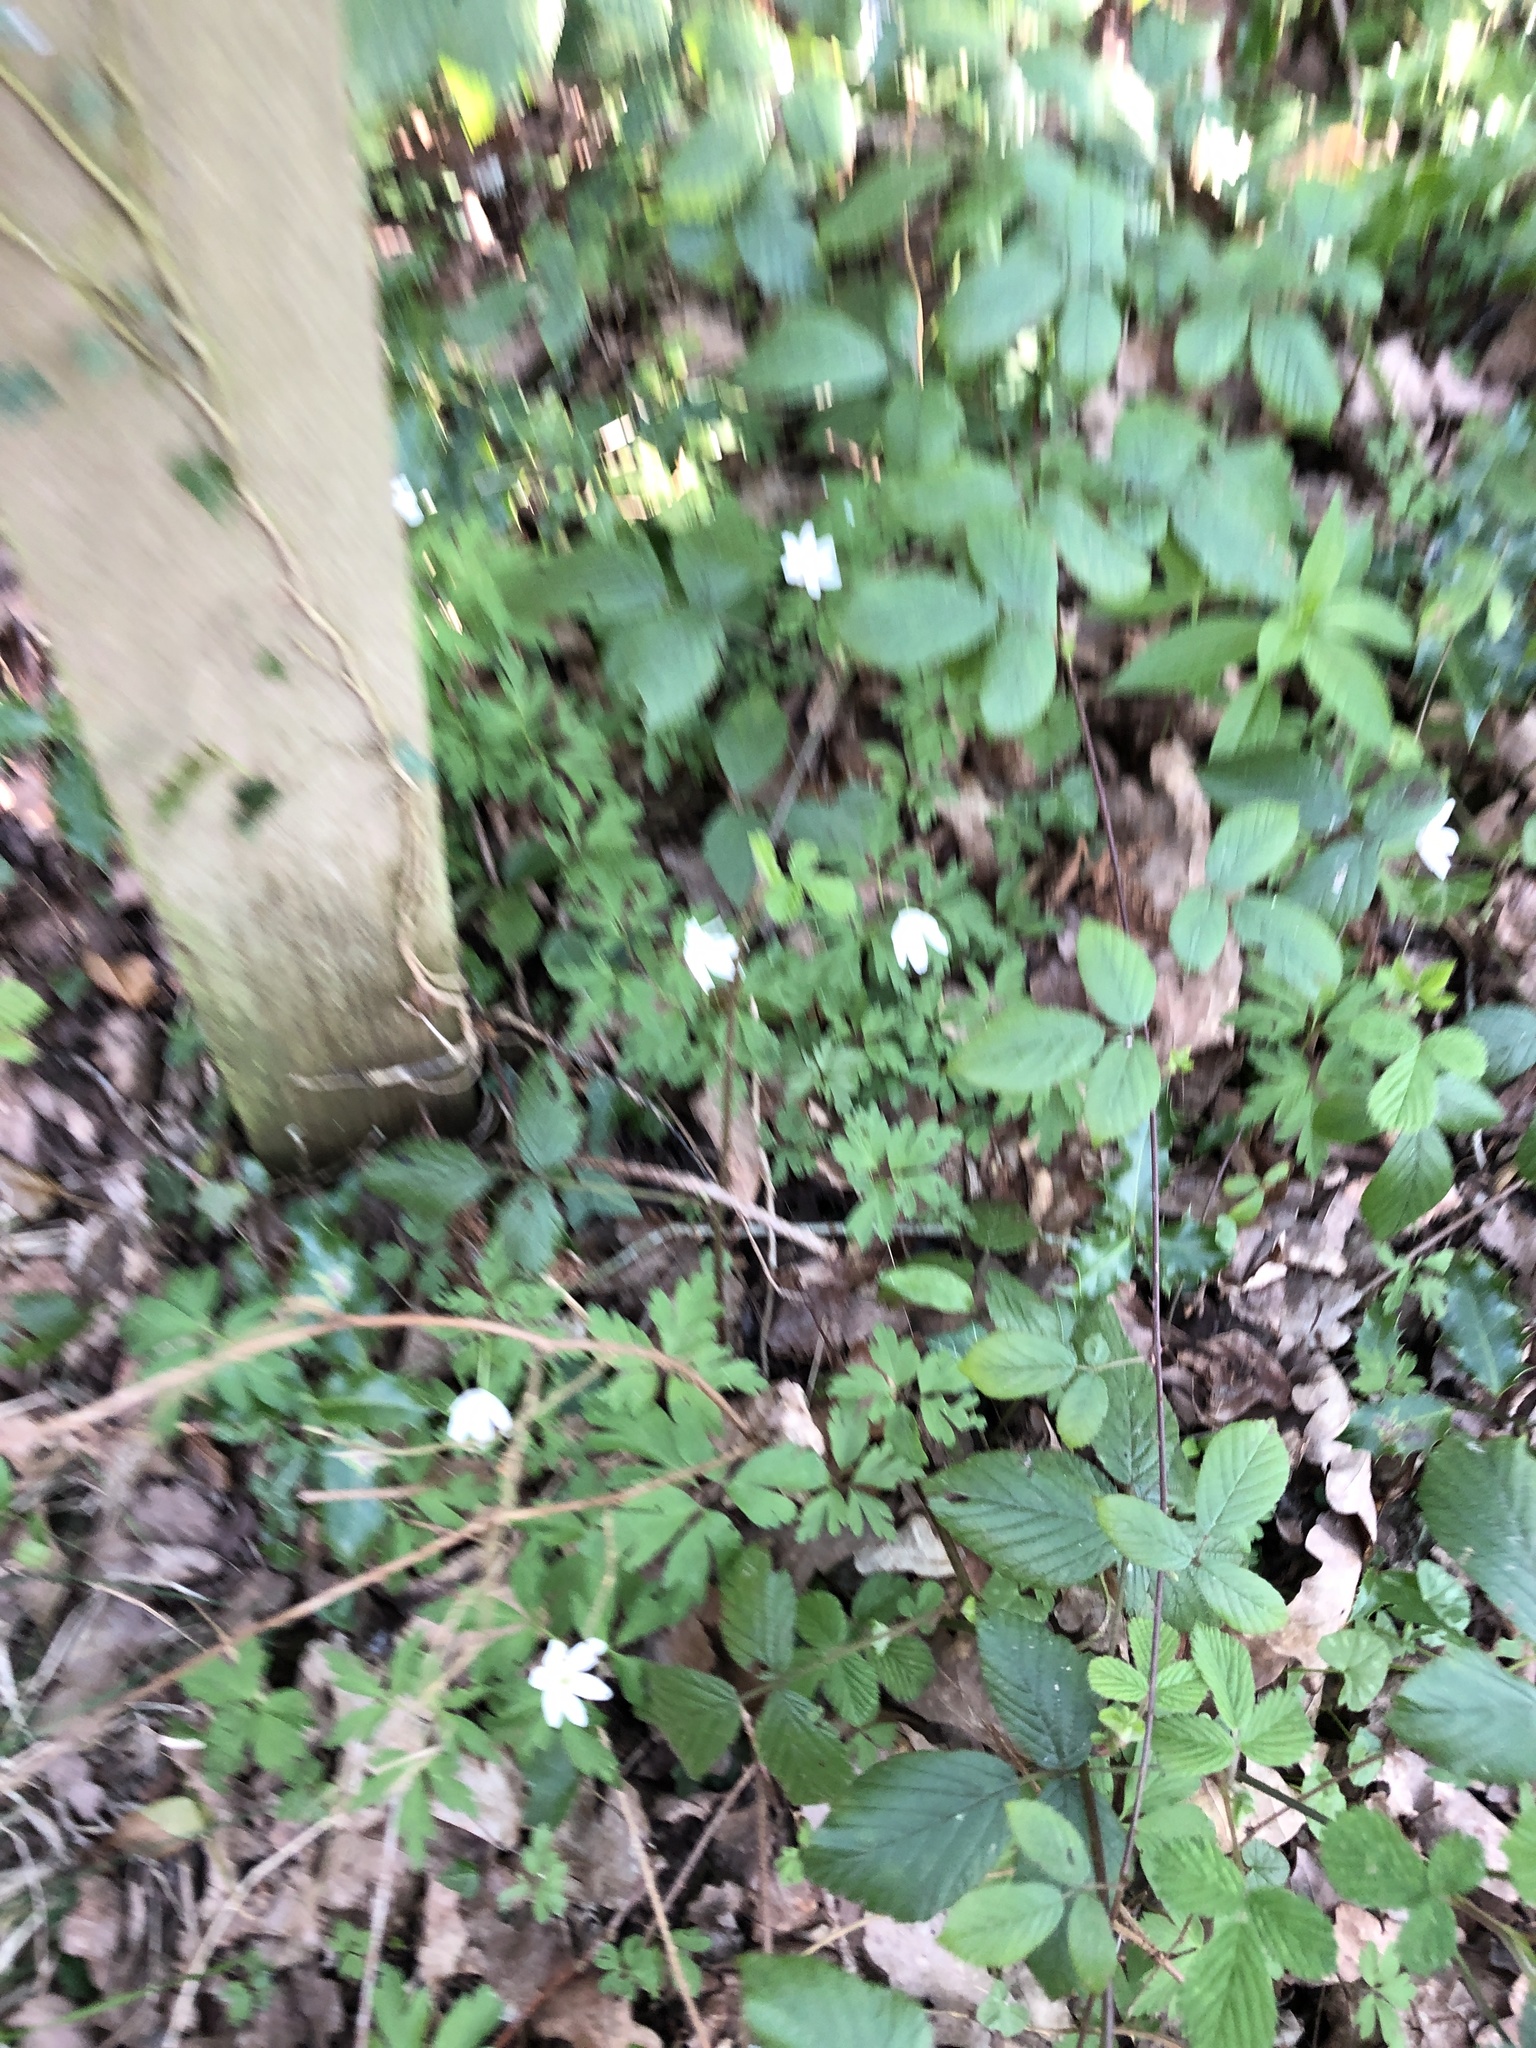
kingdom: Plantae
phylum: Tracheophyta
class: Magnoliopsida
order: Ranunculales
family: Ranunculaceae
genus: Anemone
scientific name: Anemone nemorosa
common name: Wood anemone
